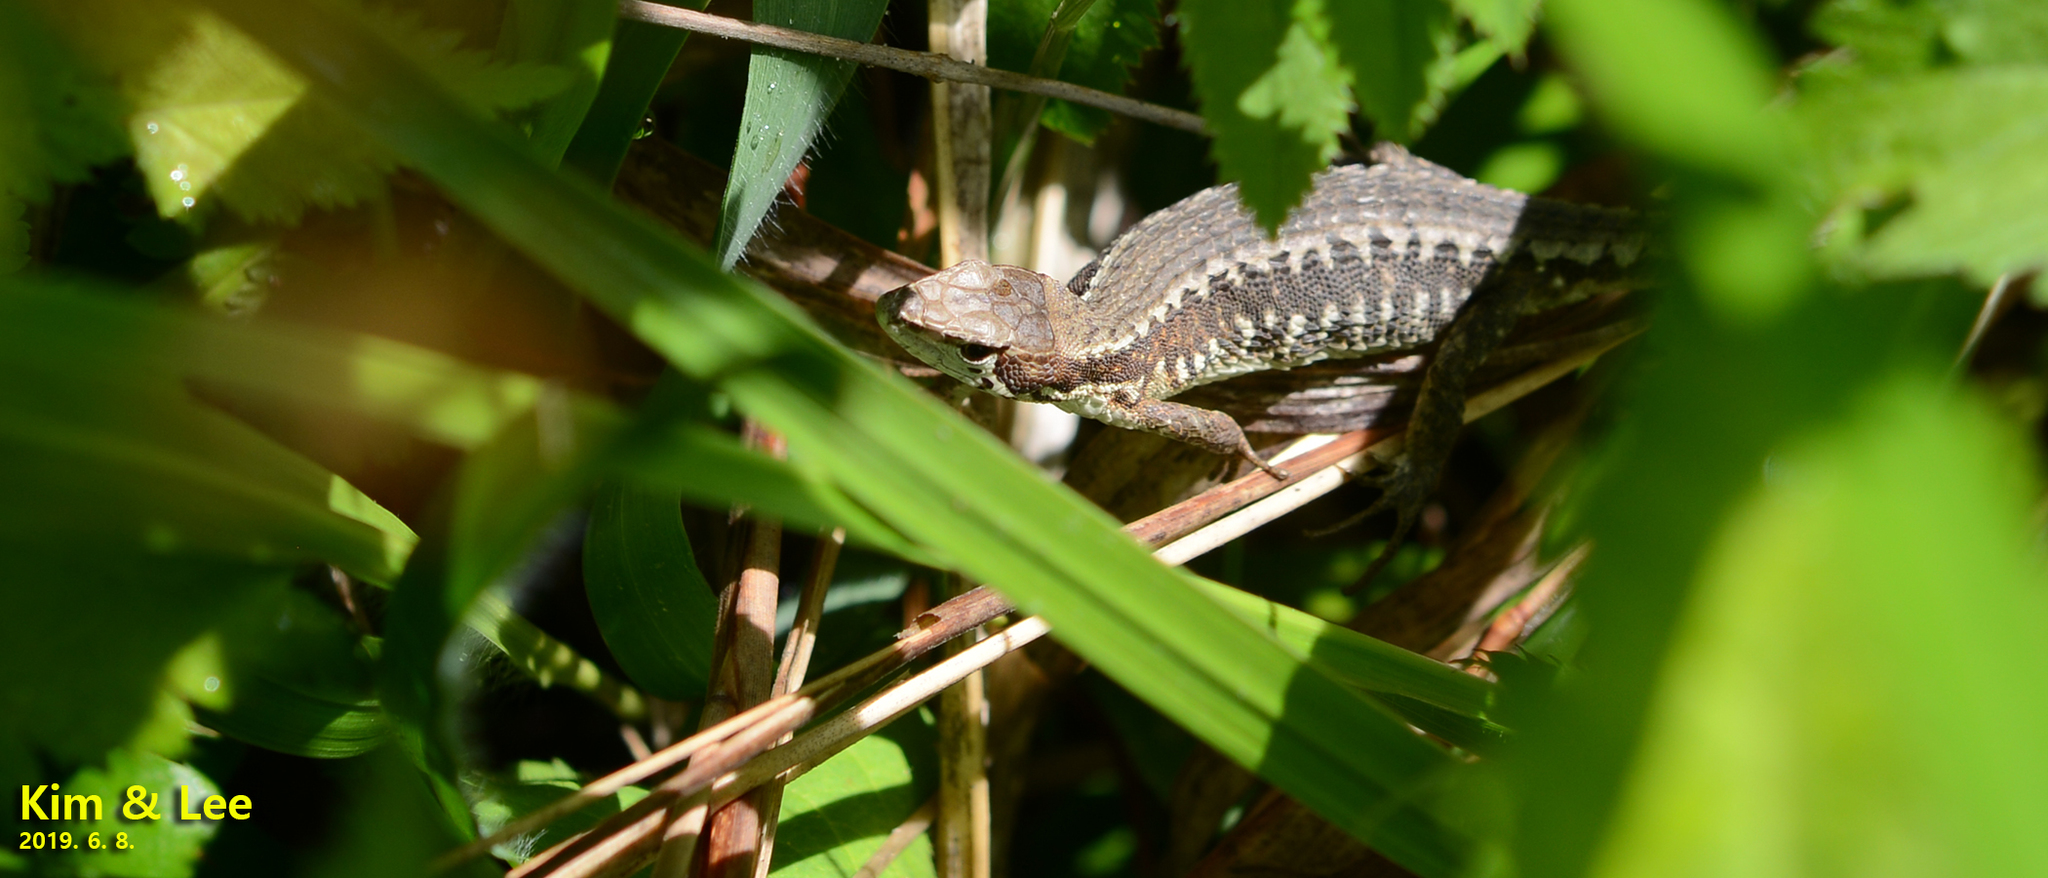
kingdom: Animalia
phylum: Chordata
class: Squamata
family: Lacertidae
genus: Takydromus
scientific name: Takydromus amurensis
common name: Amur grass lizard
